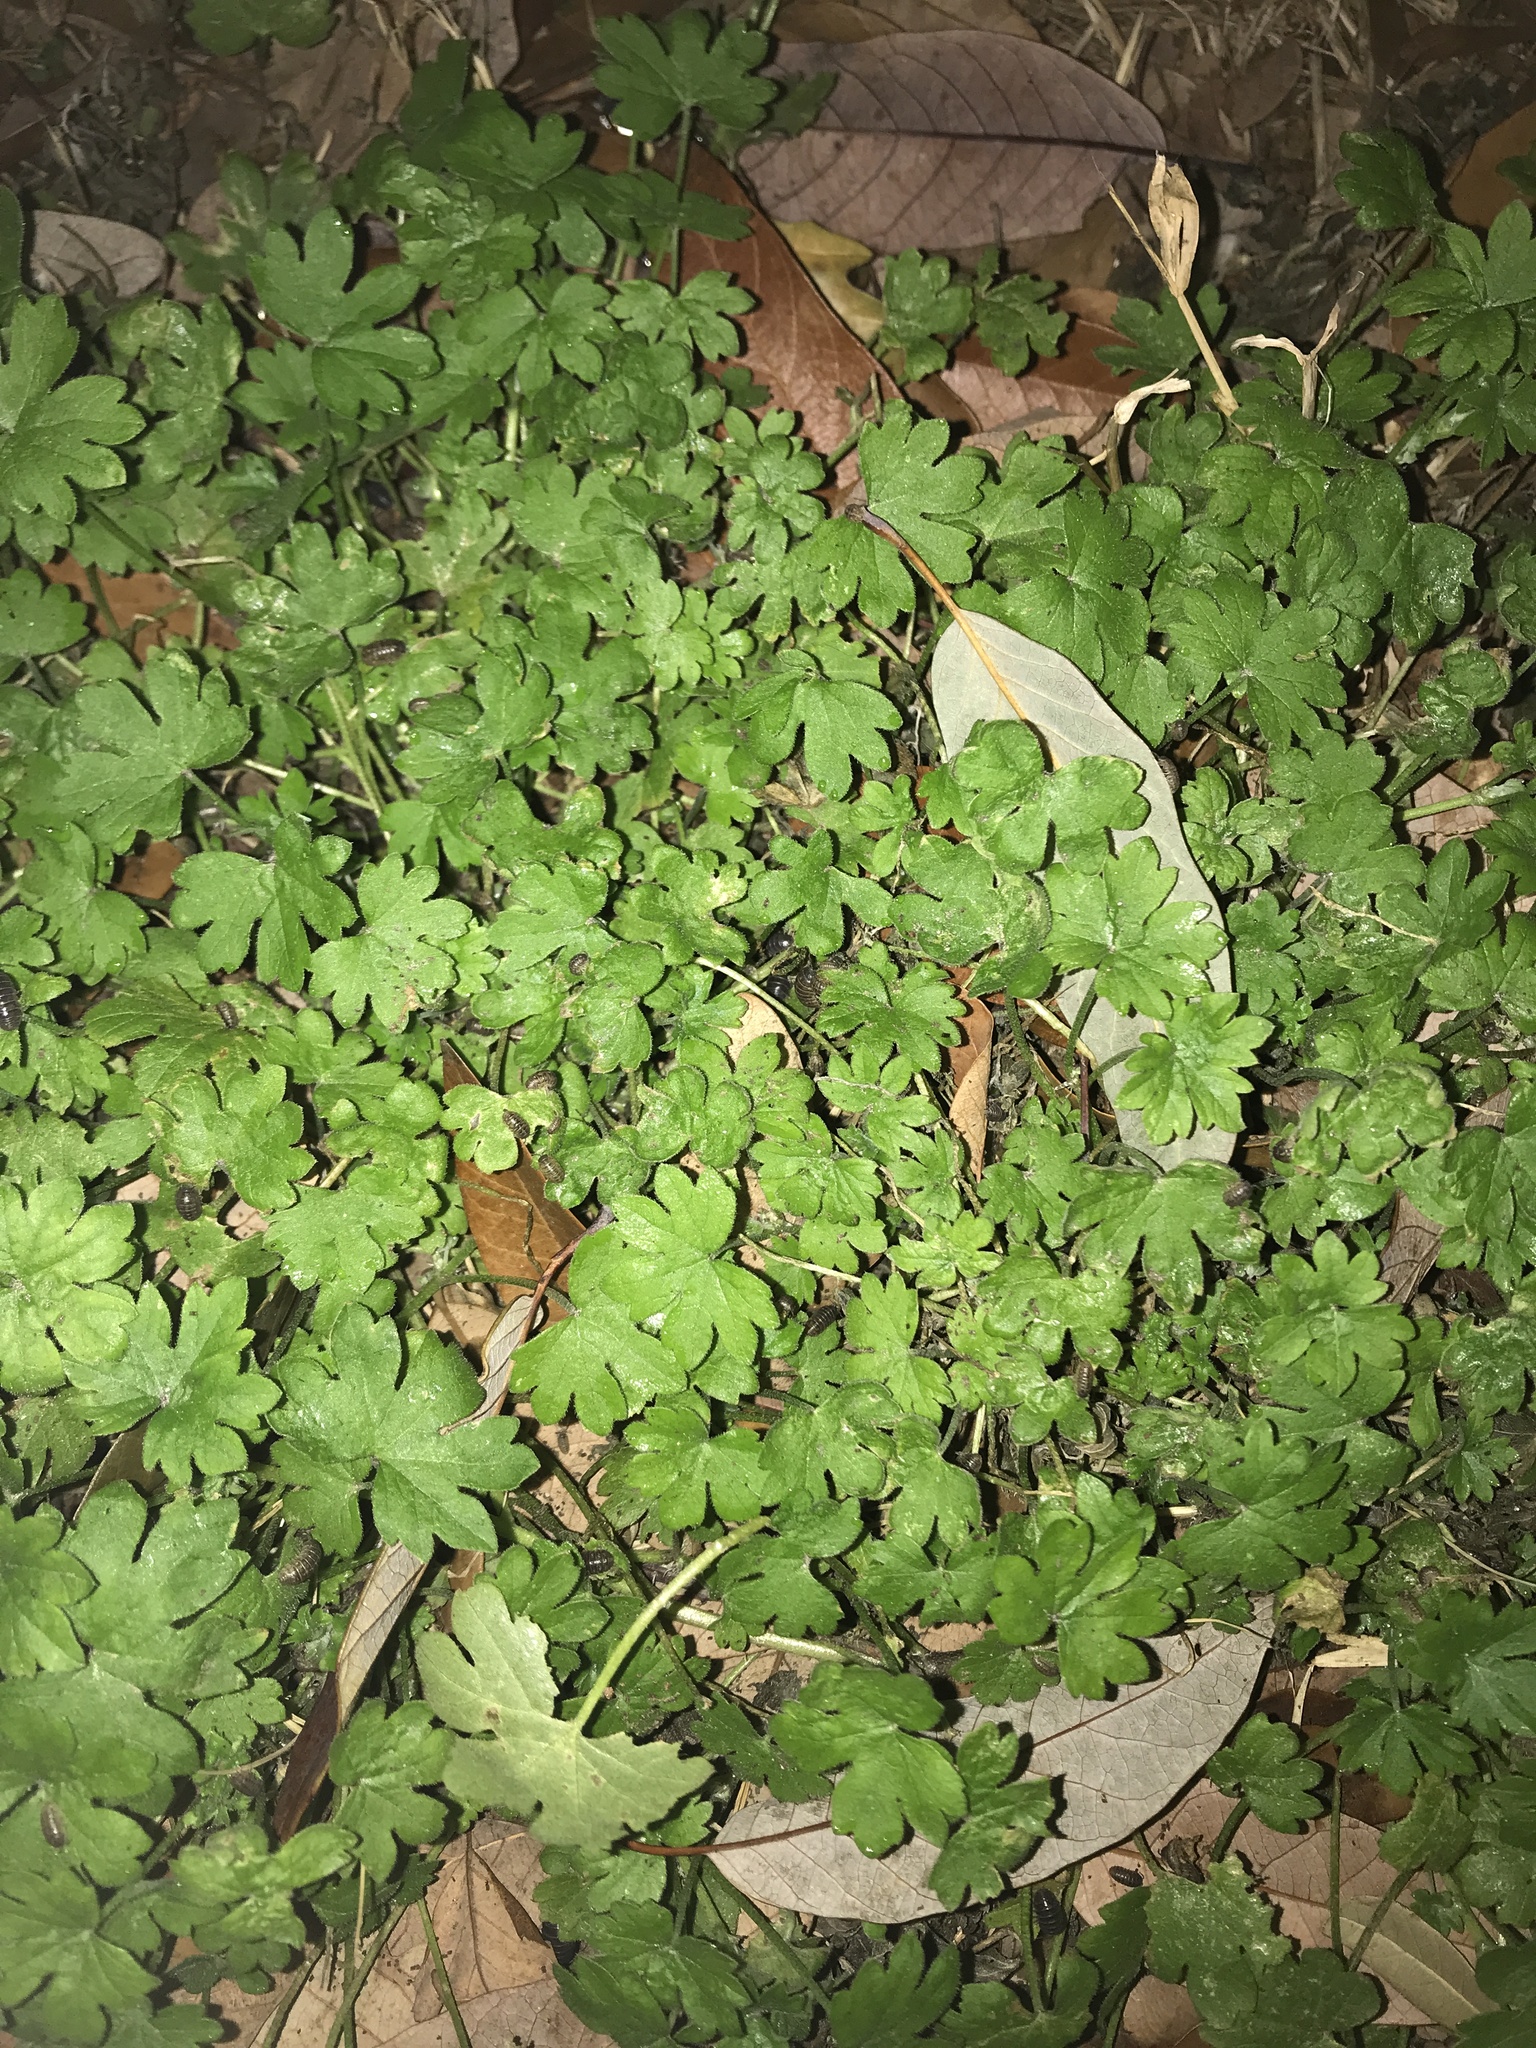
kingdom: Plantae
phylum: Tracheophyta
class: Magnoliopsida
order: Apiales
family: Apiaceae
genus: Bowlesia
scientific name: Bowlesia incana
